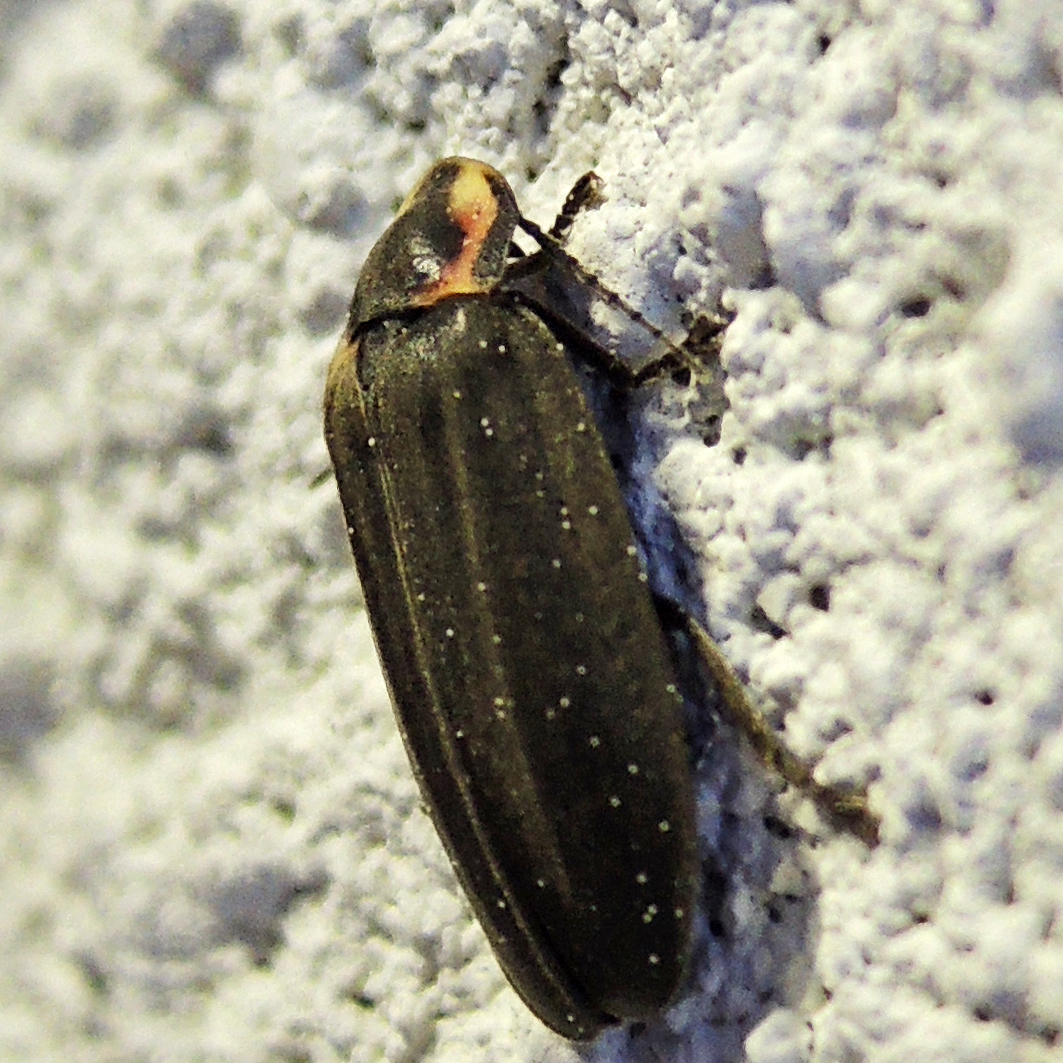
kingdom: Animalia
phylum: Arthropoda
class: Insecta
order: Coleoptera
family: Lampyridae
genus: Photinus
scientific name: Photinus corrusca
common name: Winter firefly
